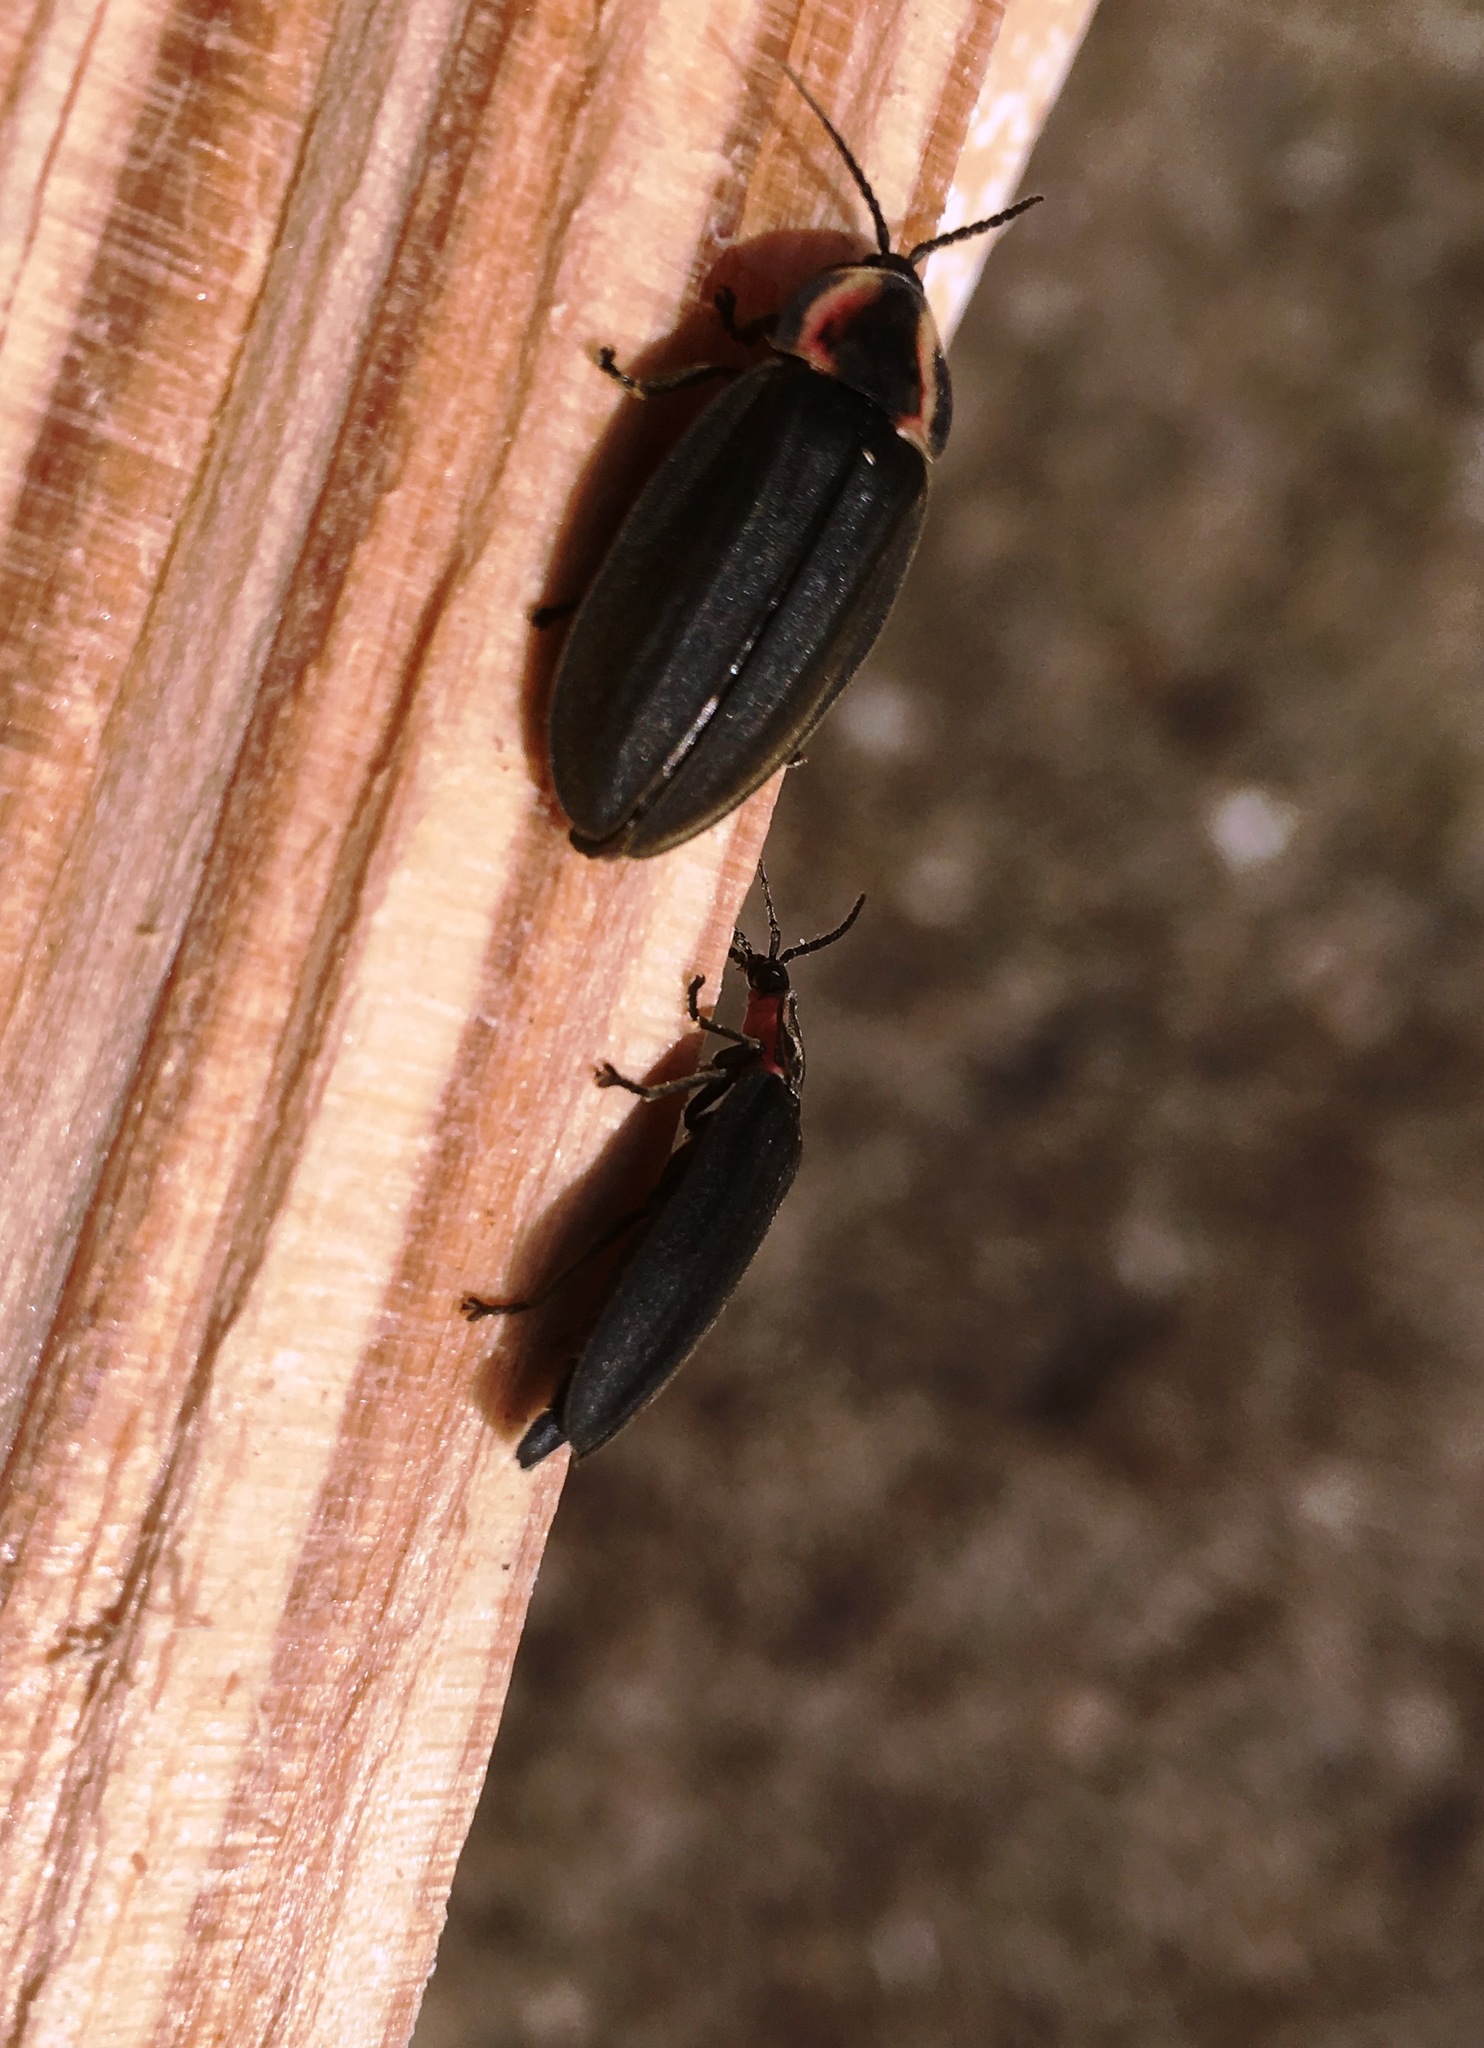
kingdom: Animalia
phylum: Arthropoda
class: Insecta
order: Coleoptera
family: Lampyridae
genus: Photinus
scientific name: Photinus corrusca
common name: Winter firefly
